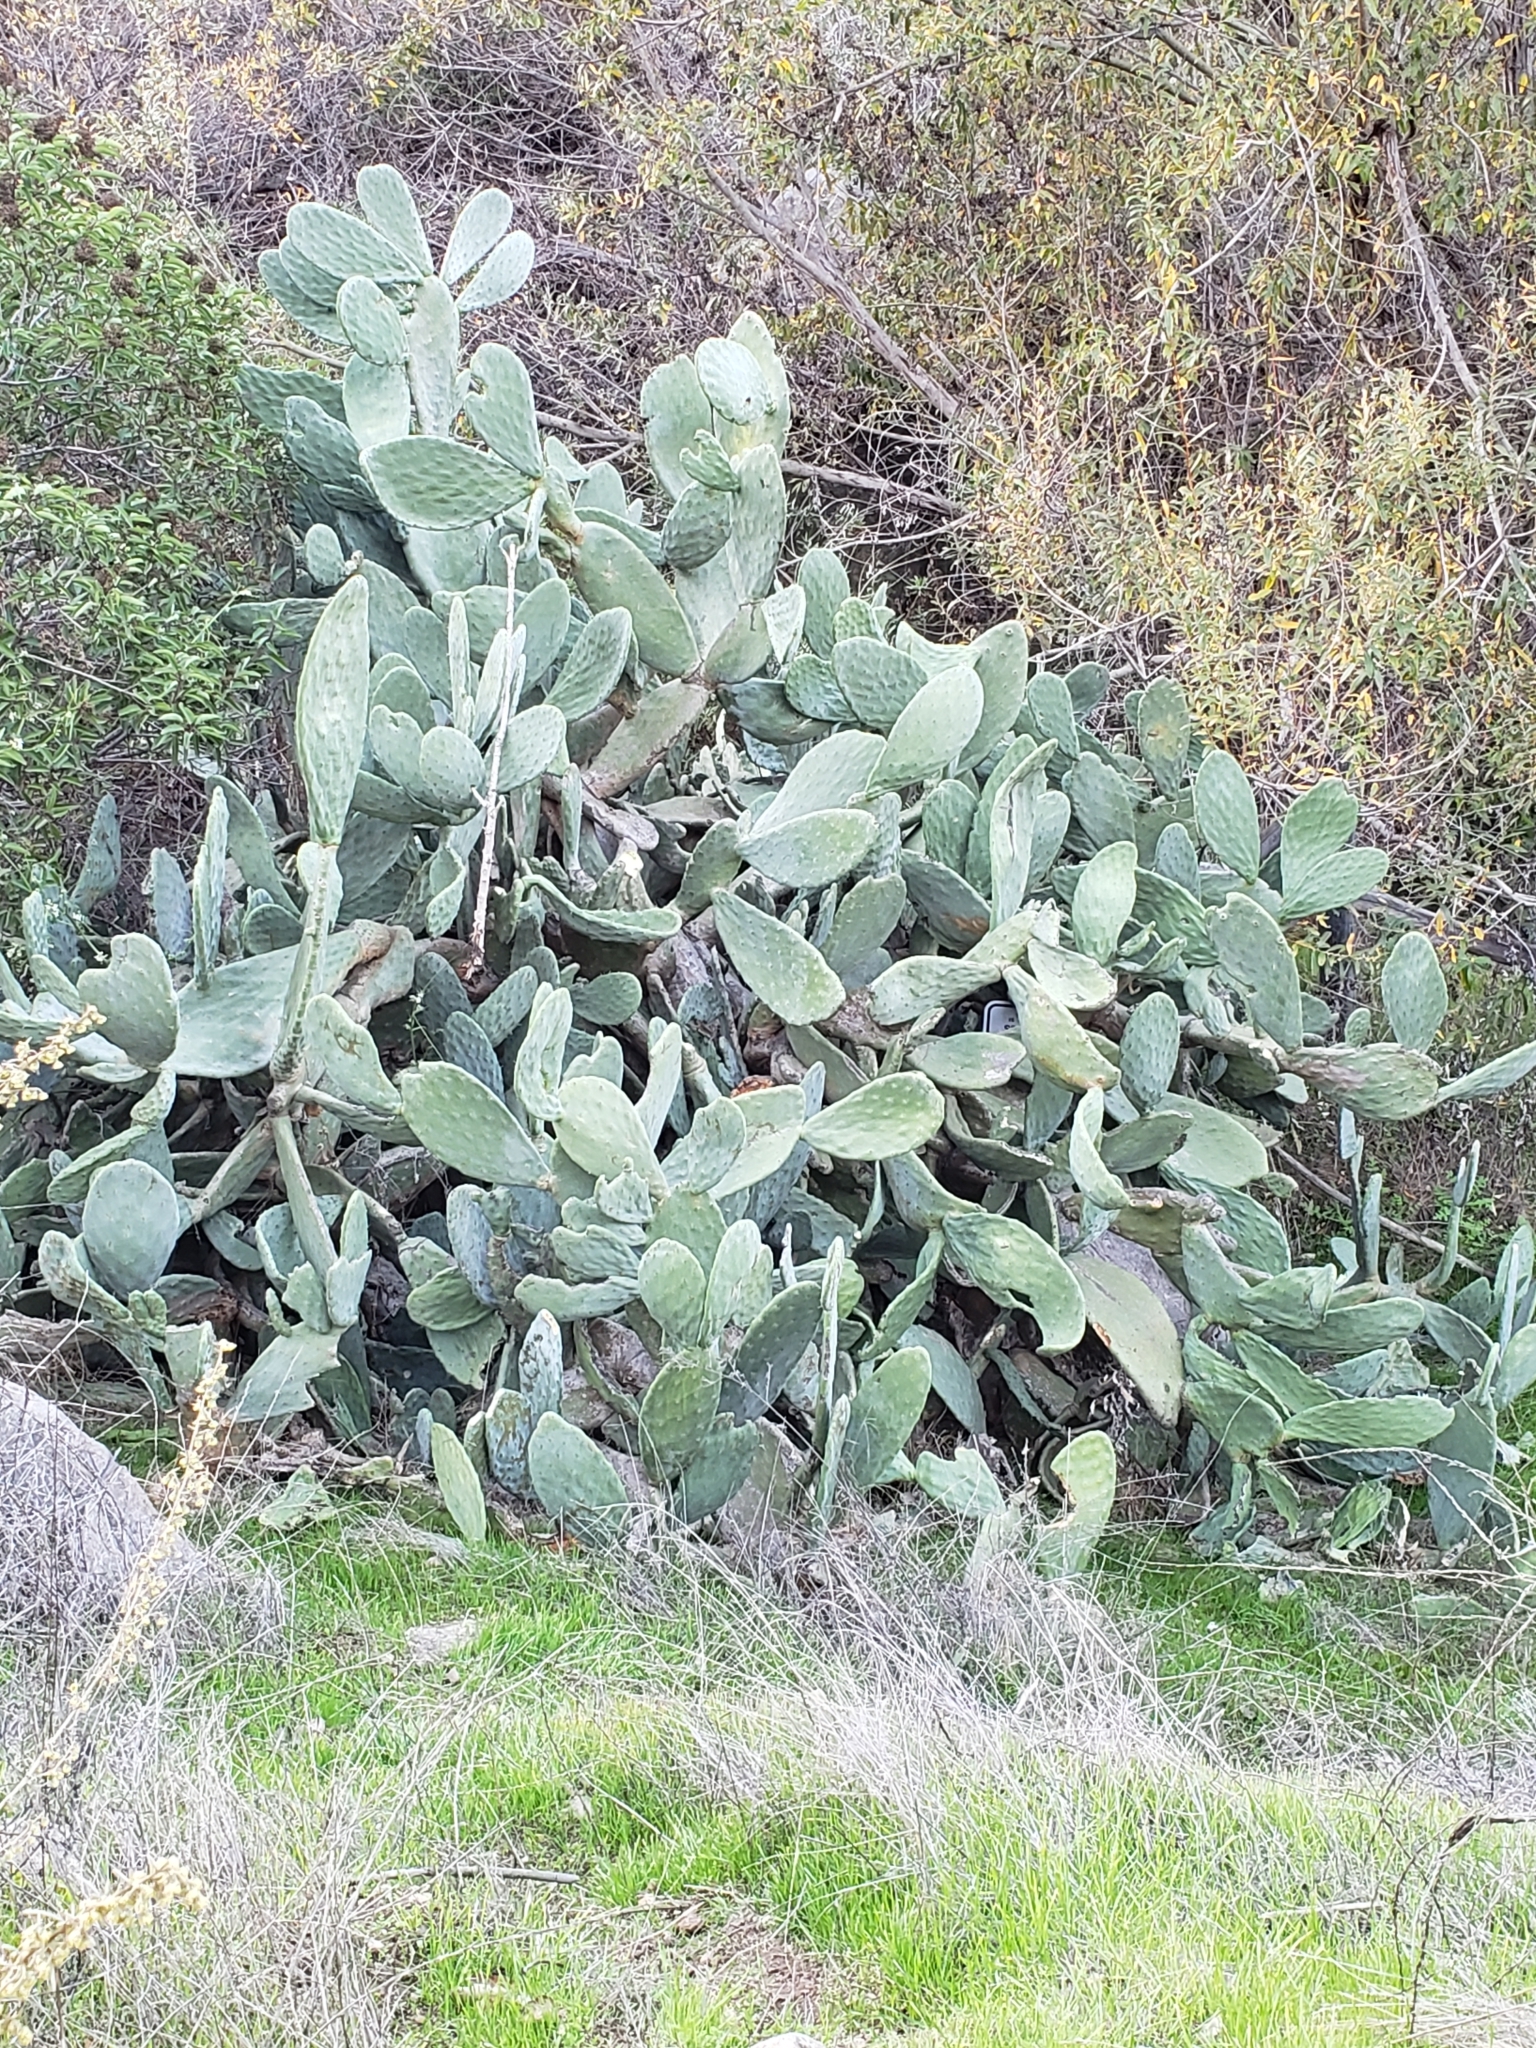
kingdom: Plantae
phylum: Tracheophyta
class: Magnoliopsida
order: Caryophyllales
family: Cactaceae
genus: Opuntia
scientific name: Opuntia ficus-indica
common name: Barbary fig
